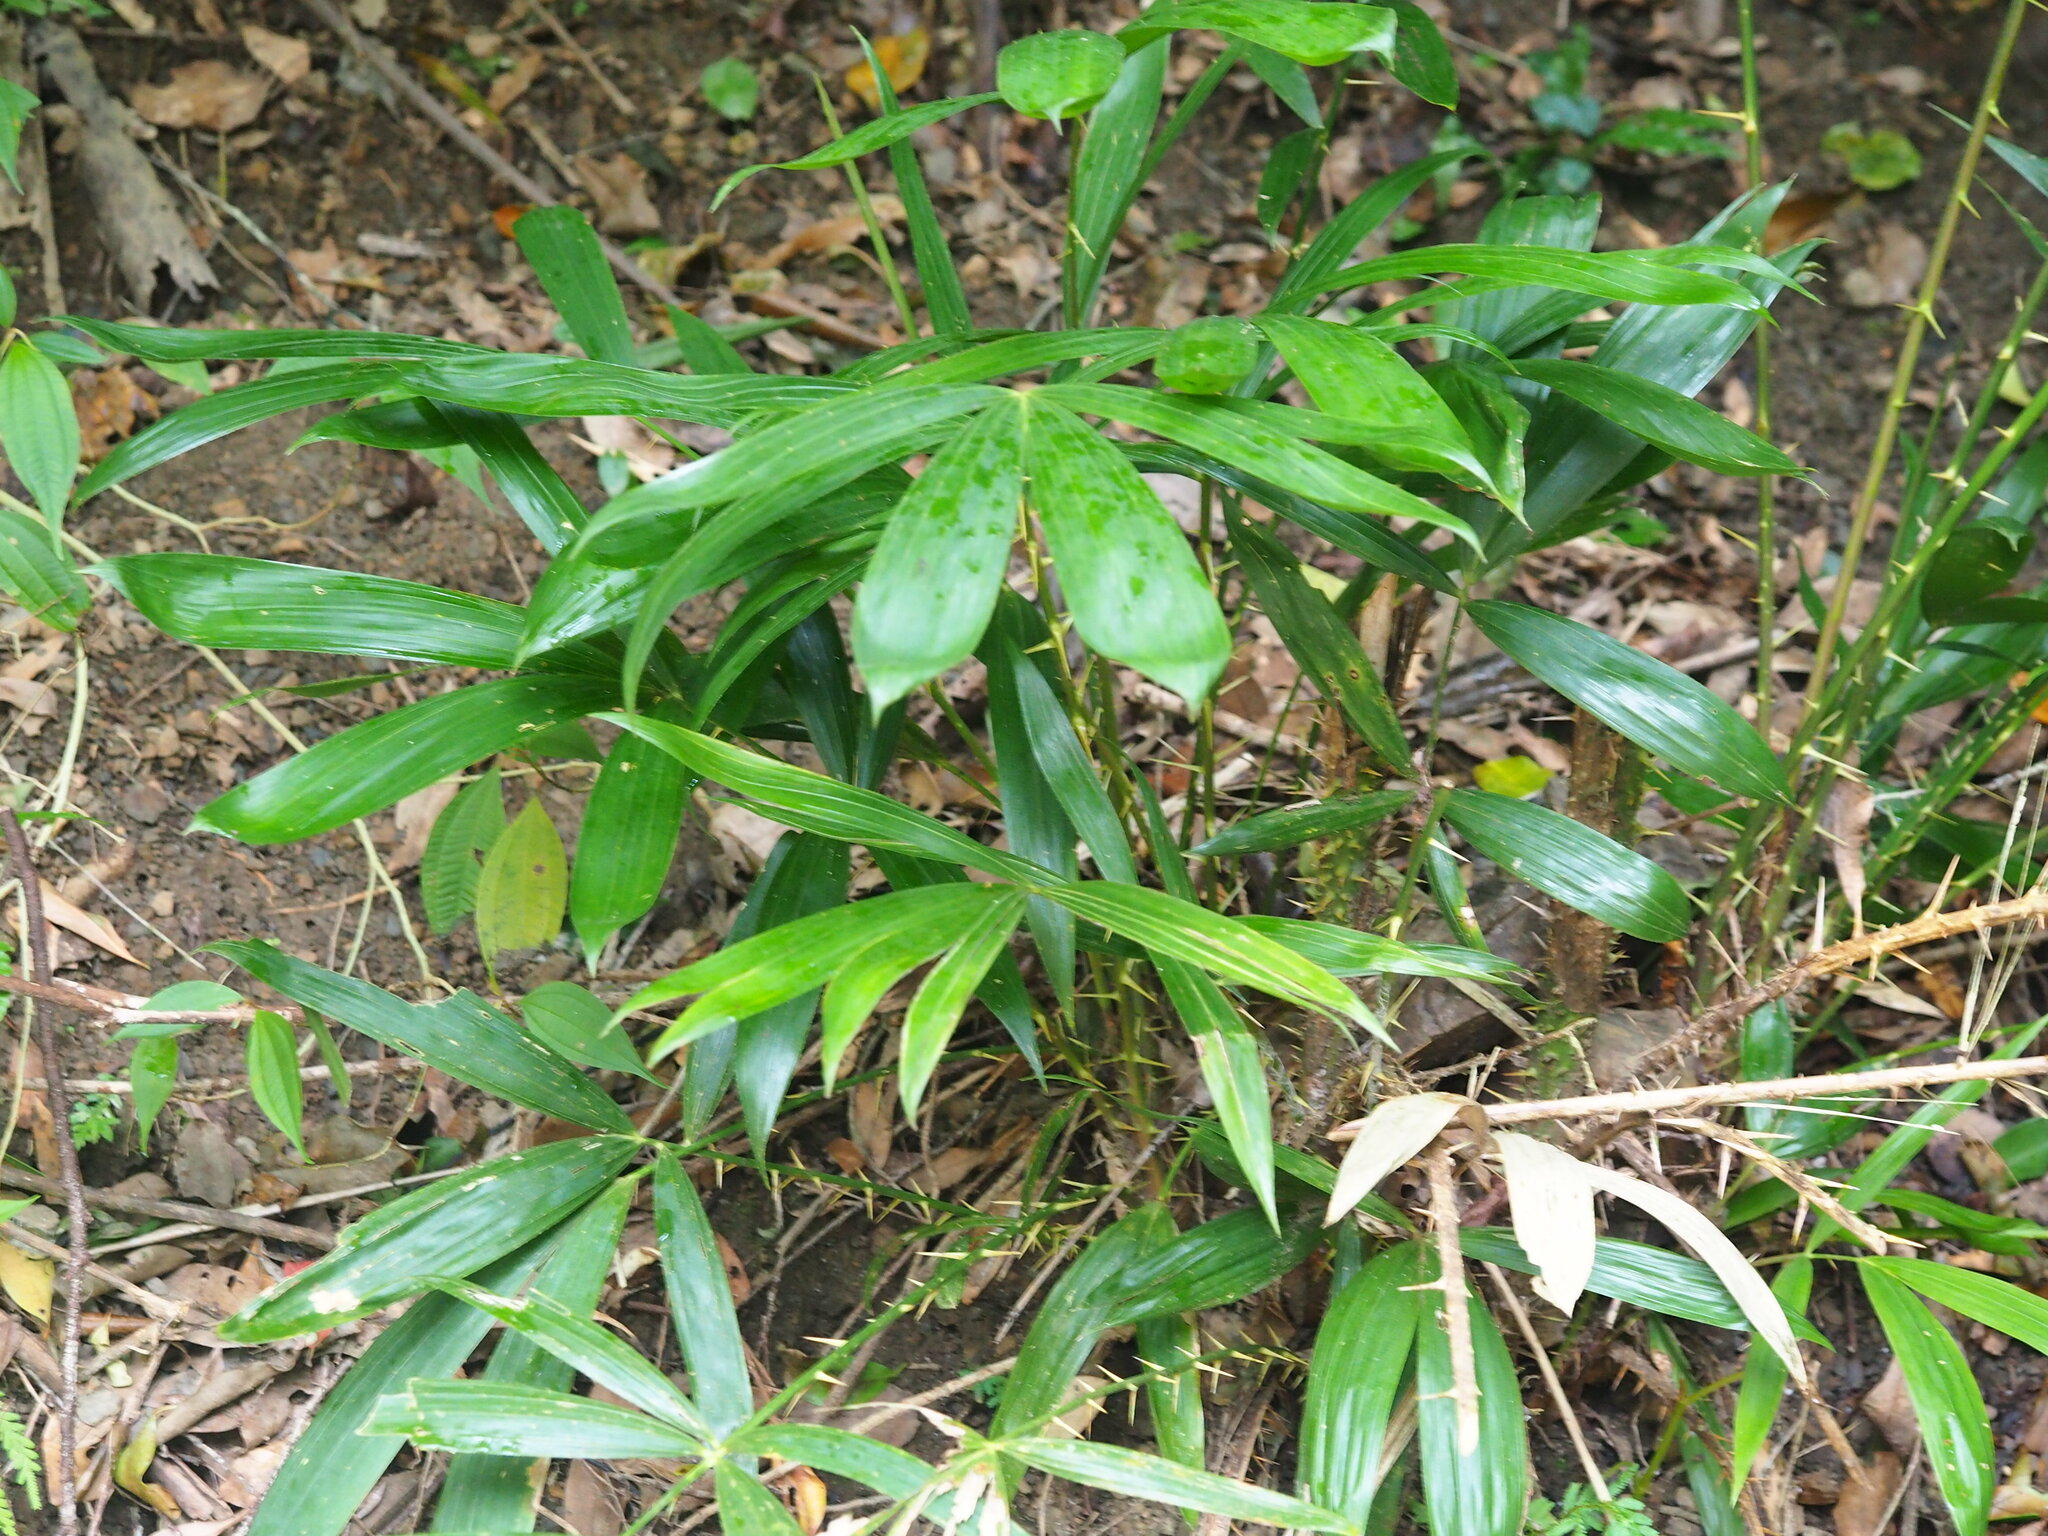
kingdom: Plantae
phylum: Tracheophyta
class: Liliopsida
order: Arecales
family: Arecaceae
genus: Calamus
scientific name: Calamus formosanus
